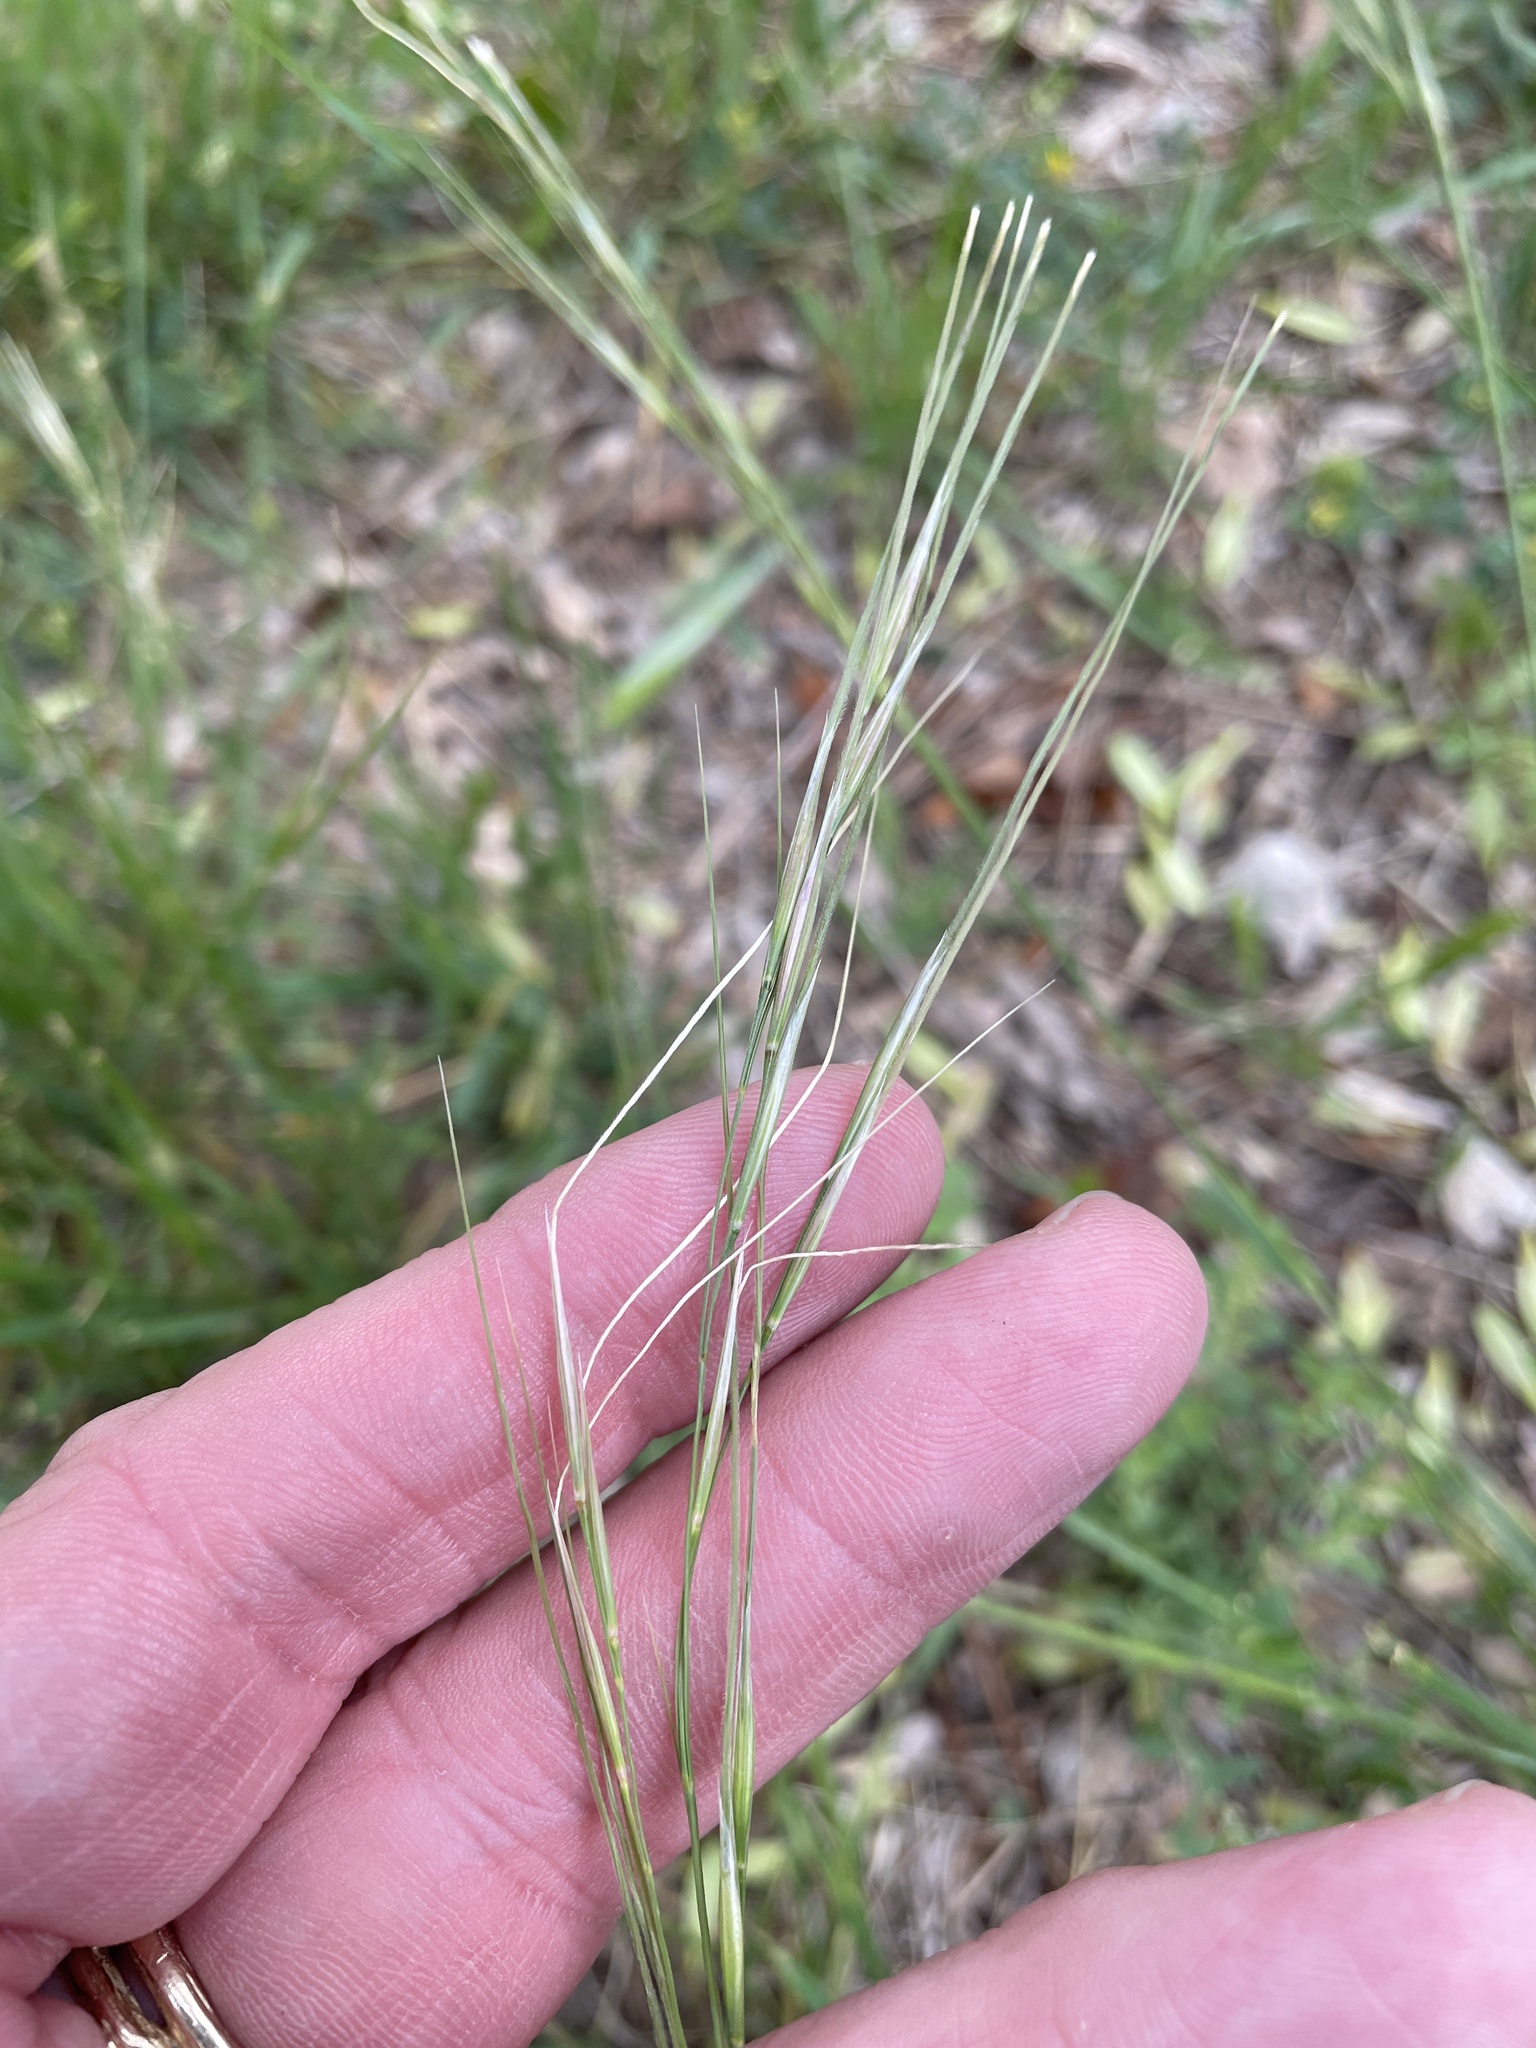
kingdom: Plantae
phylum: Tracheophyta
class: Liliopsida
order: Poales
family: Poaceae
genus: Nassella
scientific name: Nassella leucotricha
